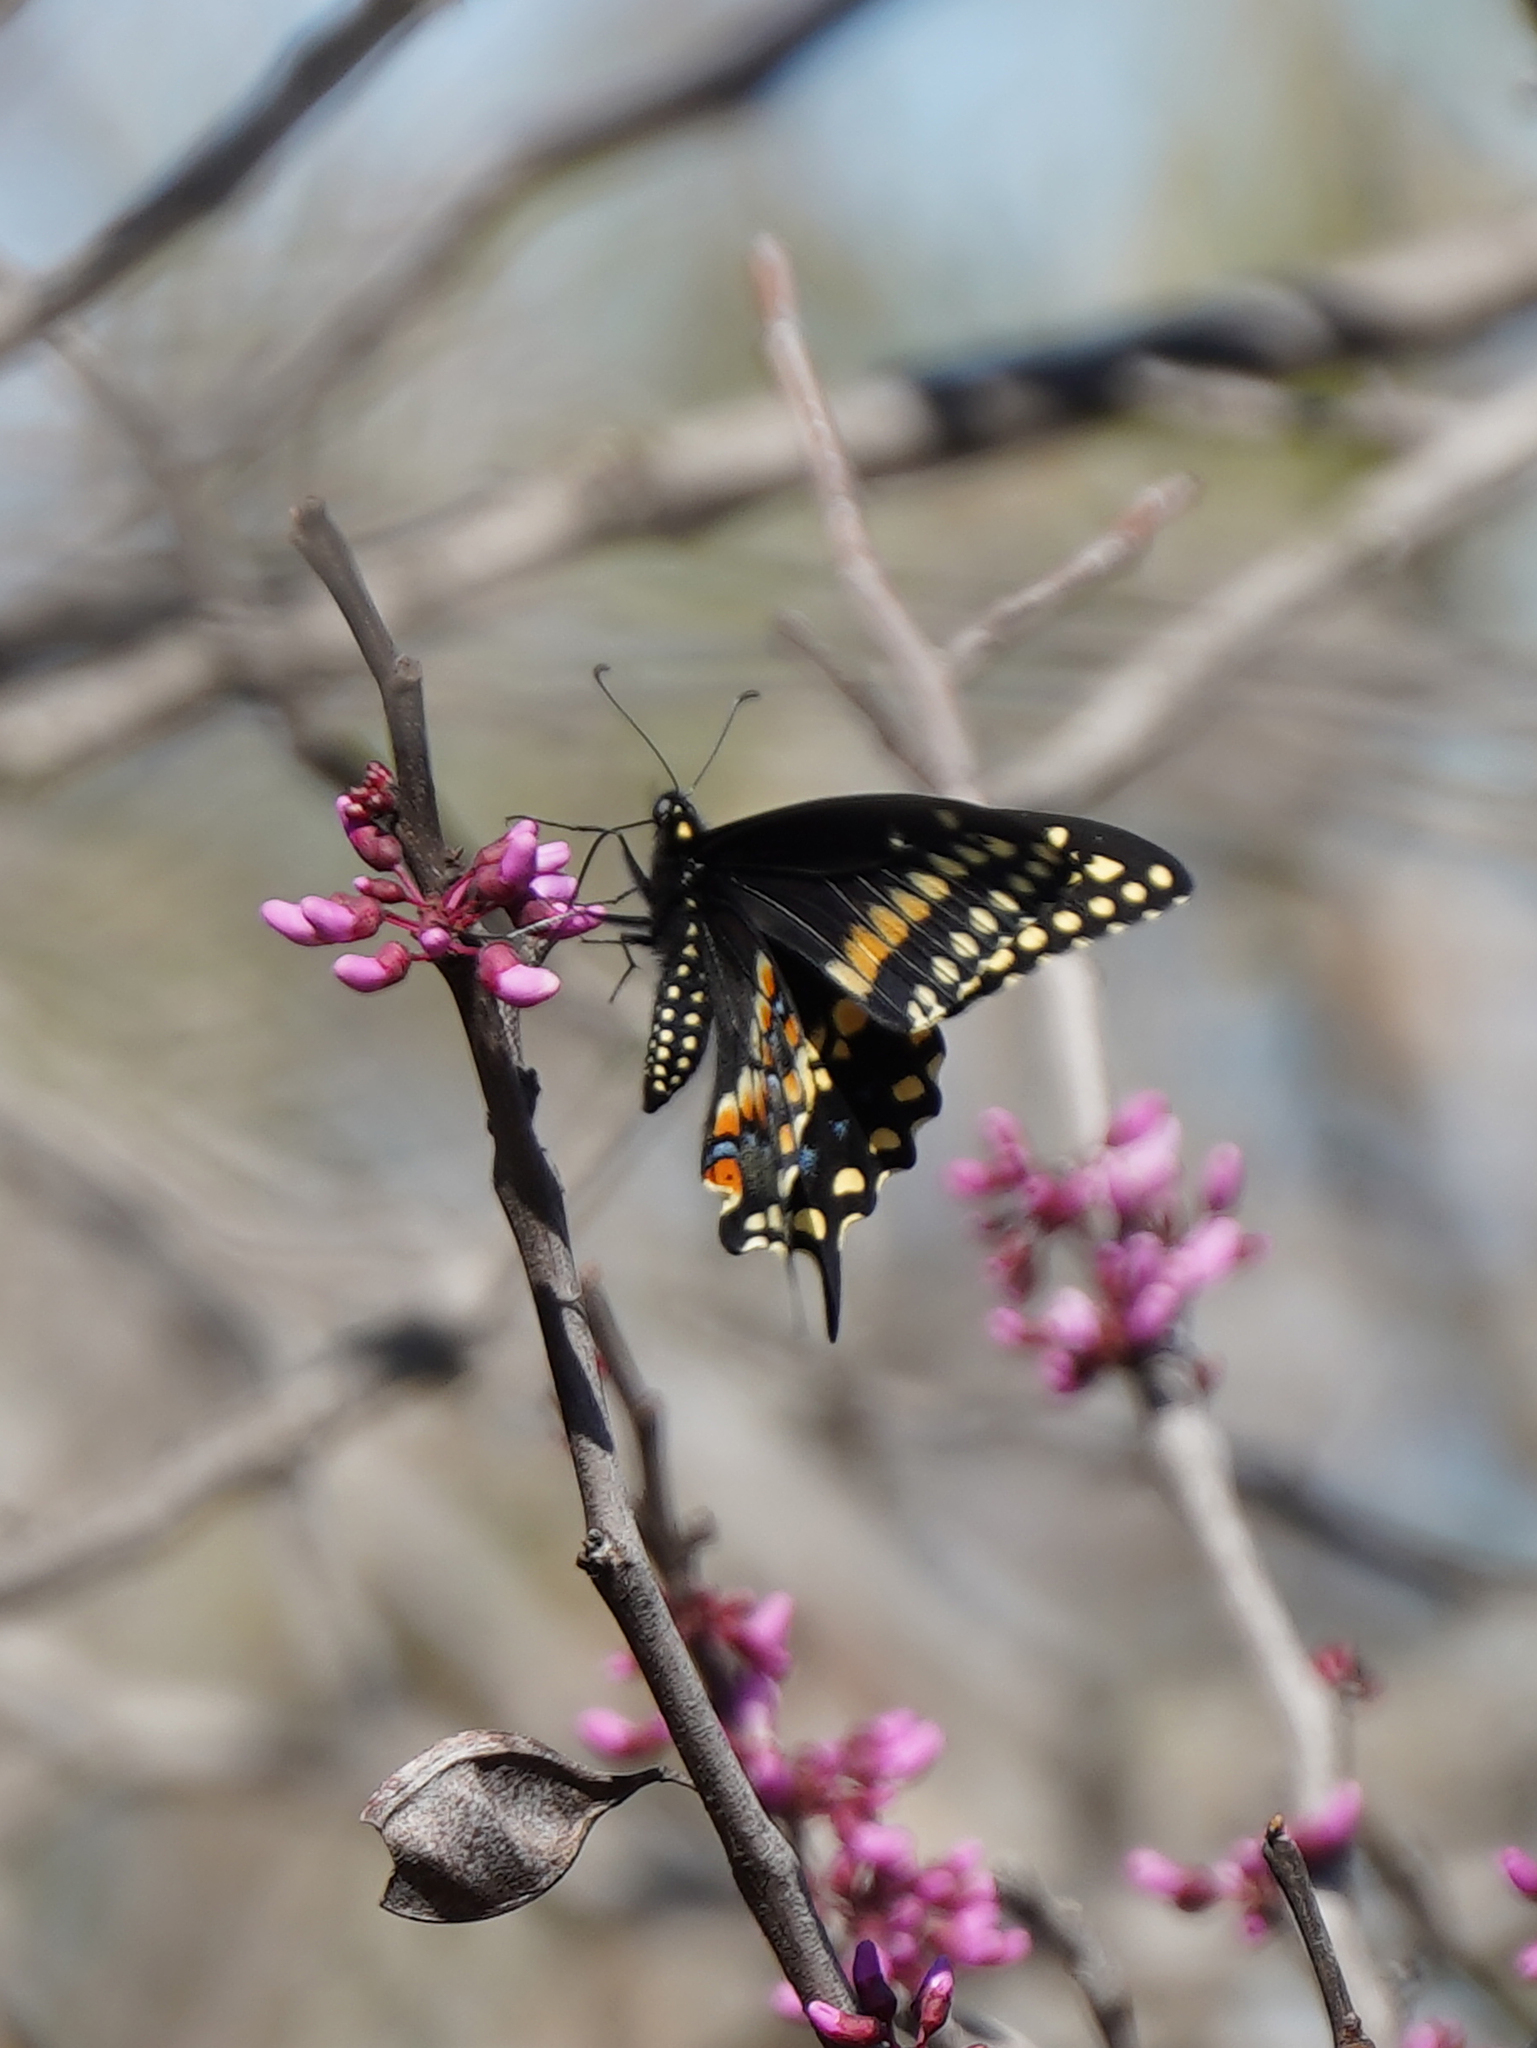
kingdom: Animalia
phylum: Arthropoda
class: Insecta
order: Lepidoptera
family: Papilionidae
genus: Papilio
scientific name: Papilio polyxenes
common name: Black swallowtail
